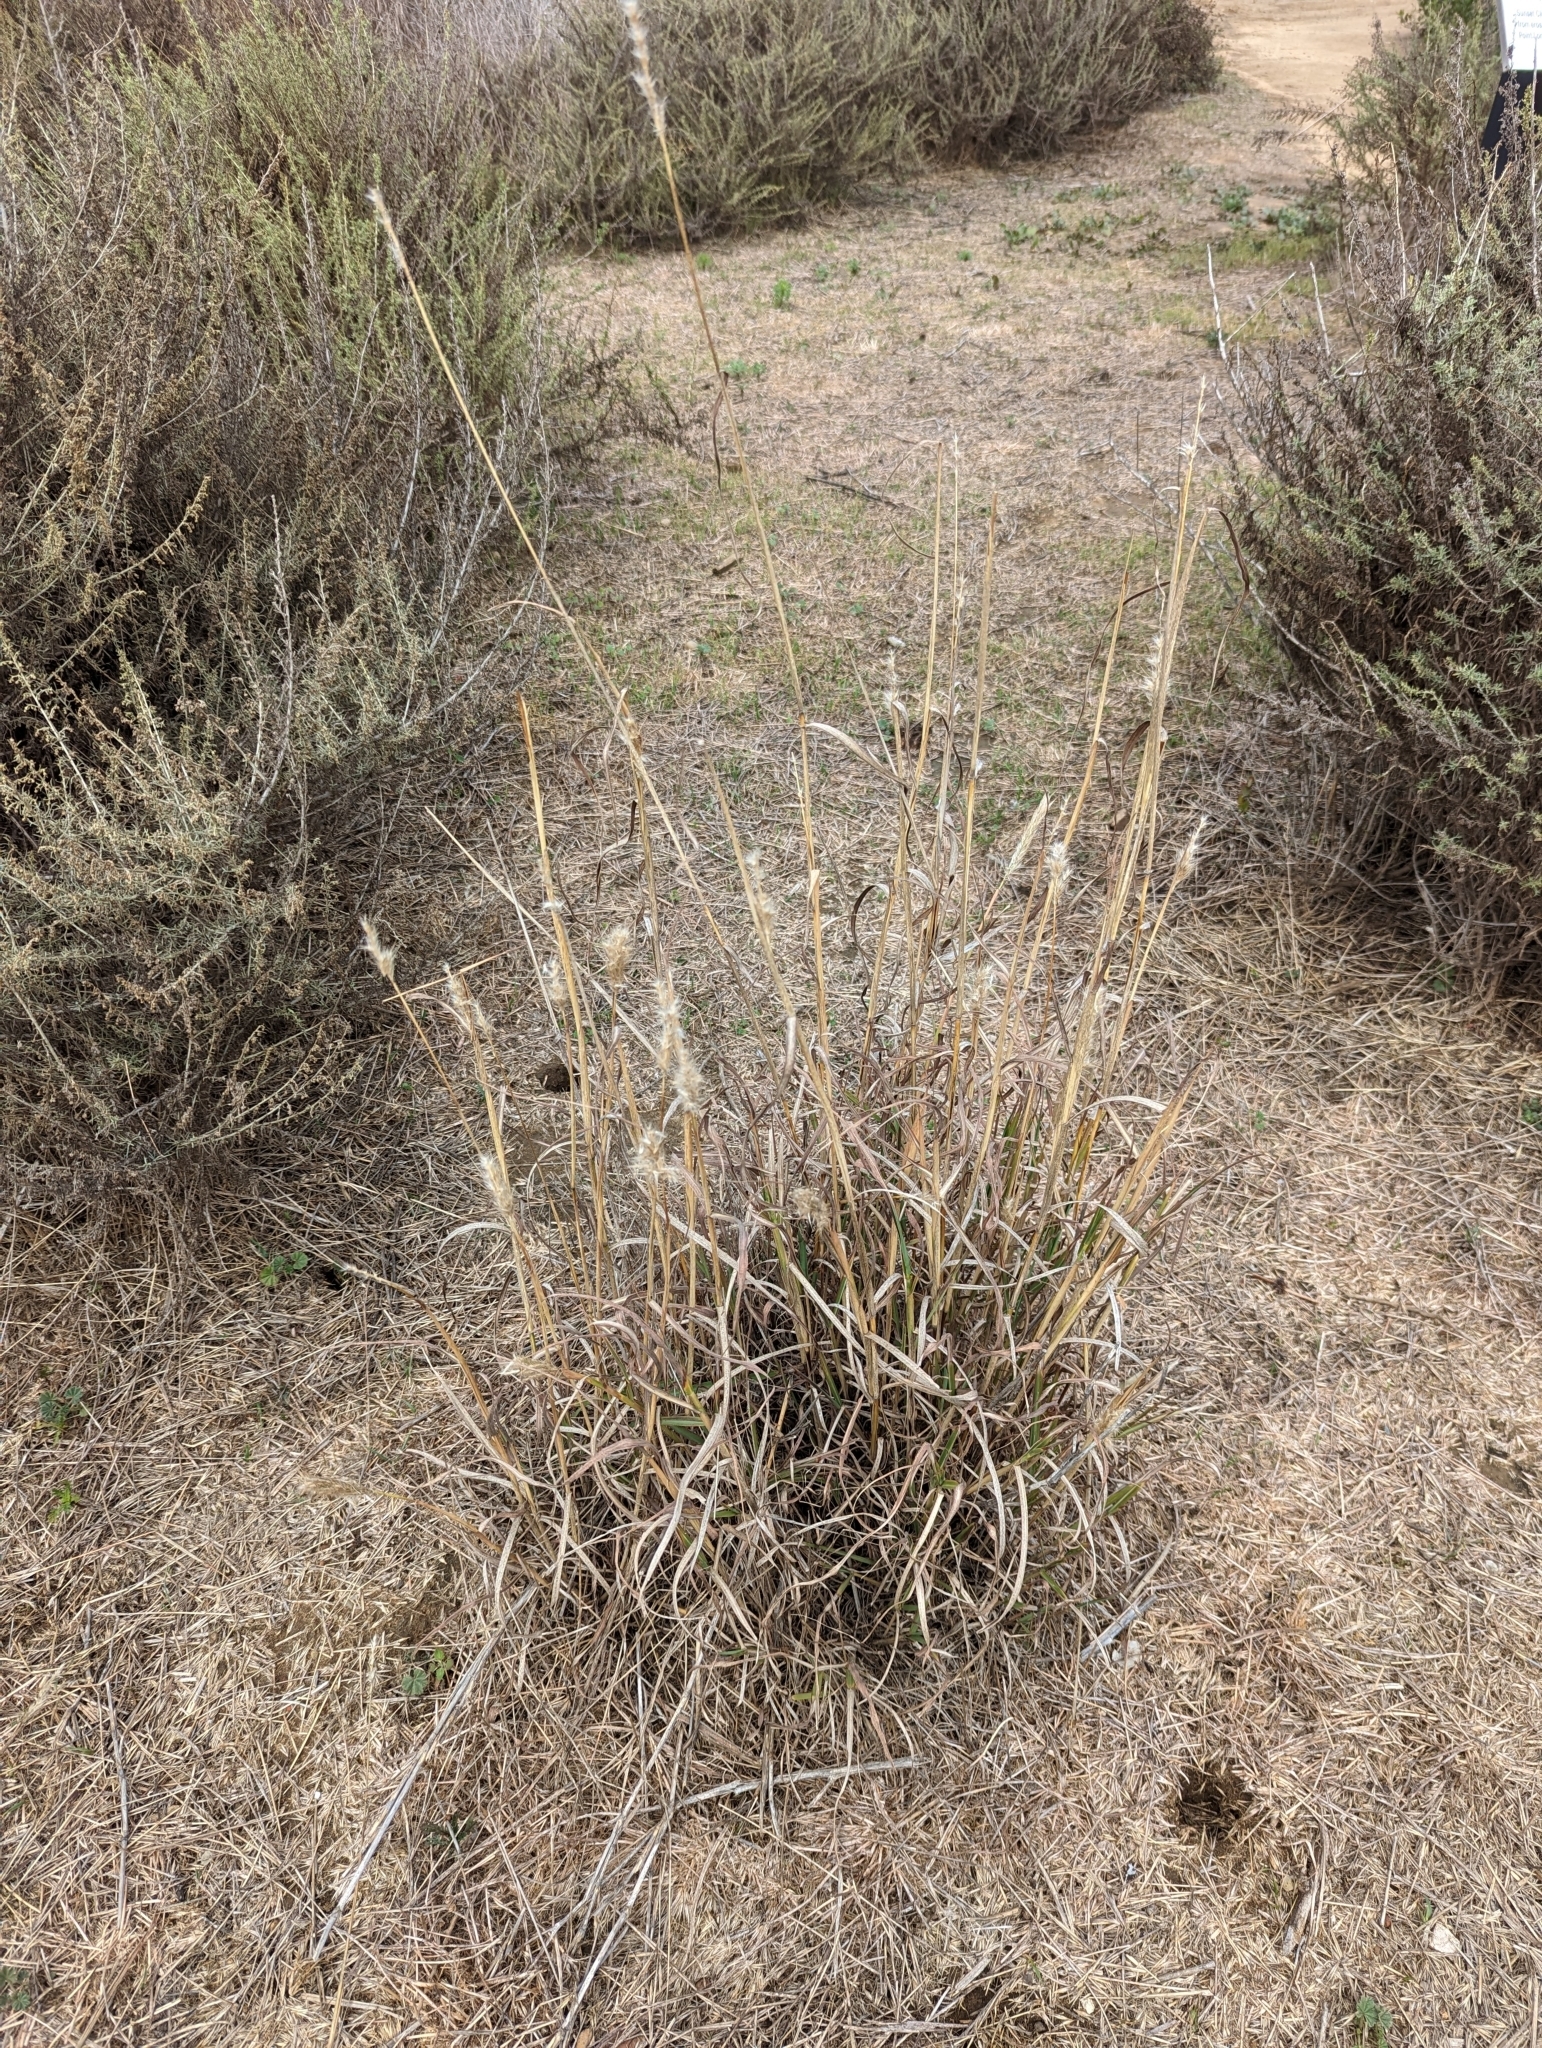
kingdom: Plantae
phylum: Tracheophyta
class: Liliopsida
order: Poales
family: Poaceae
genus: Bothriochloa
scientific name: Bothriochloa barbinodis
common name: Cane bluestem
